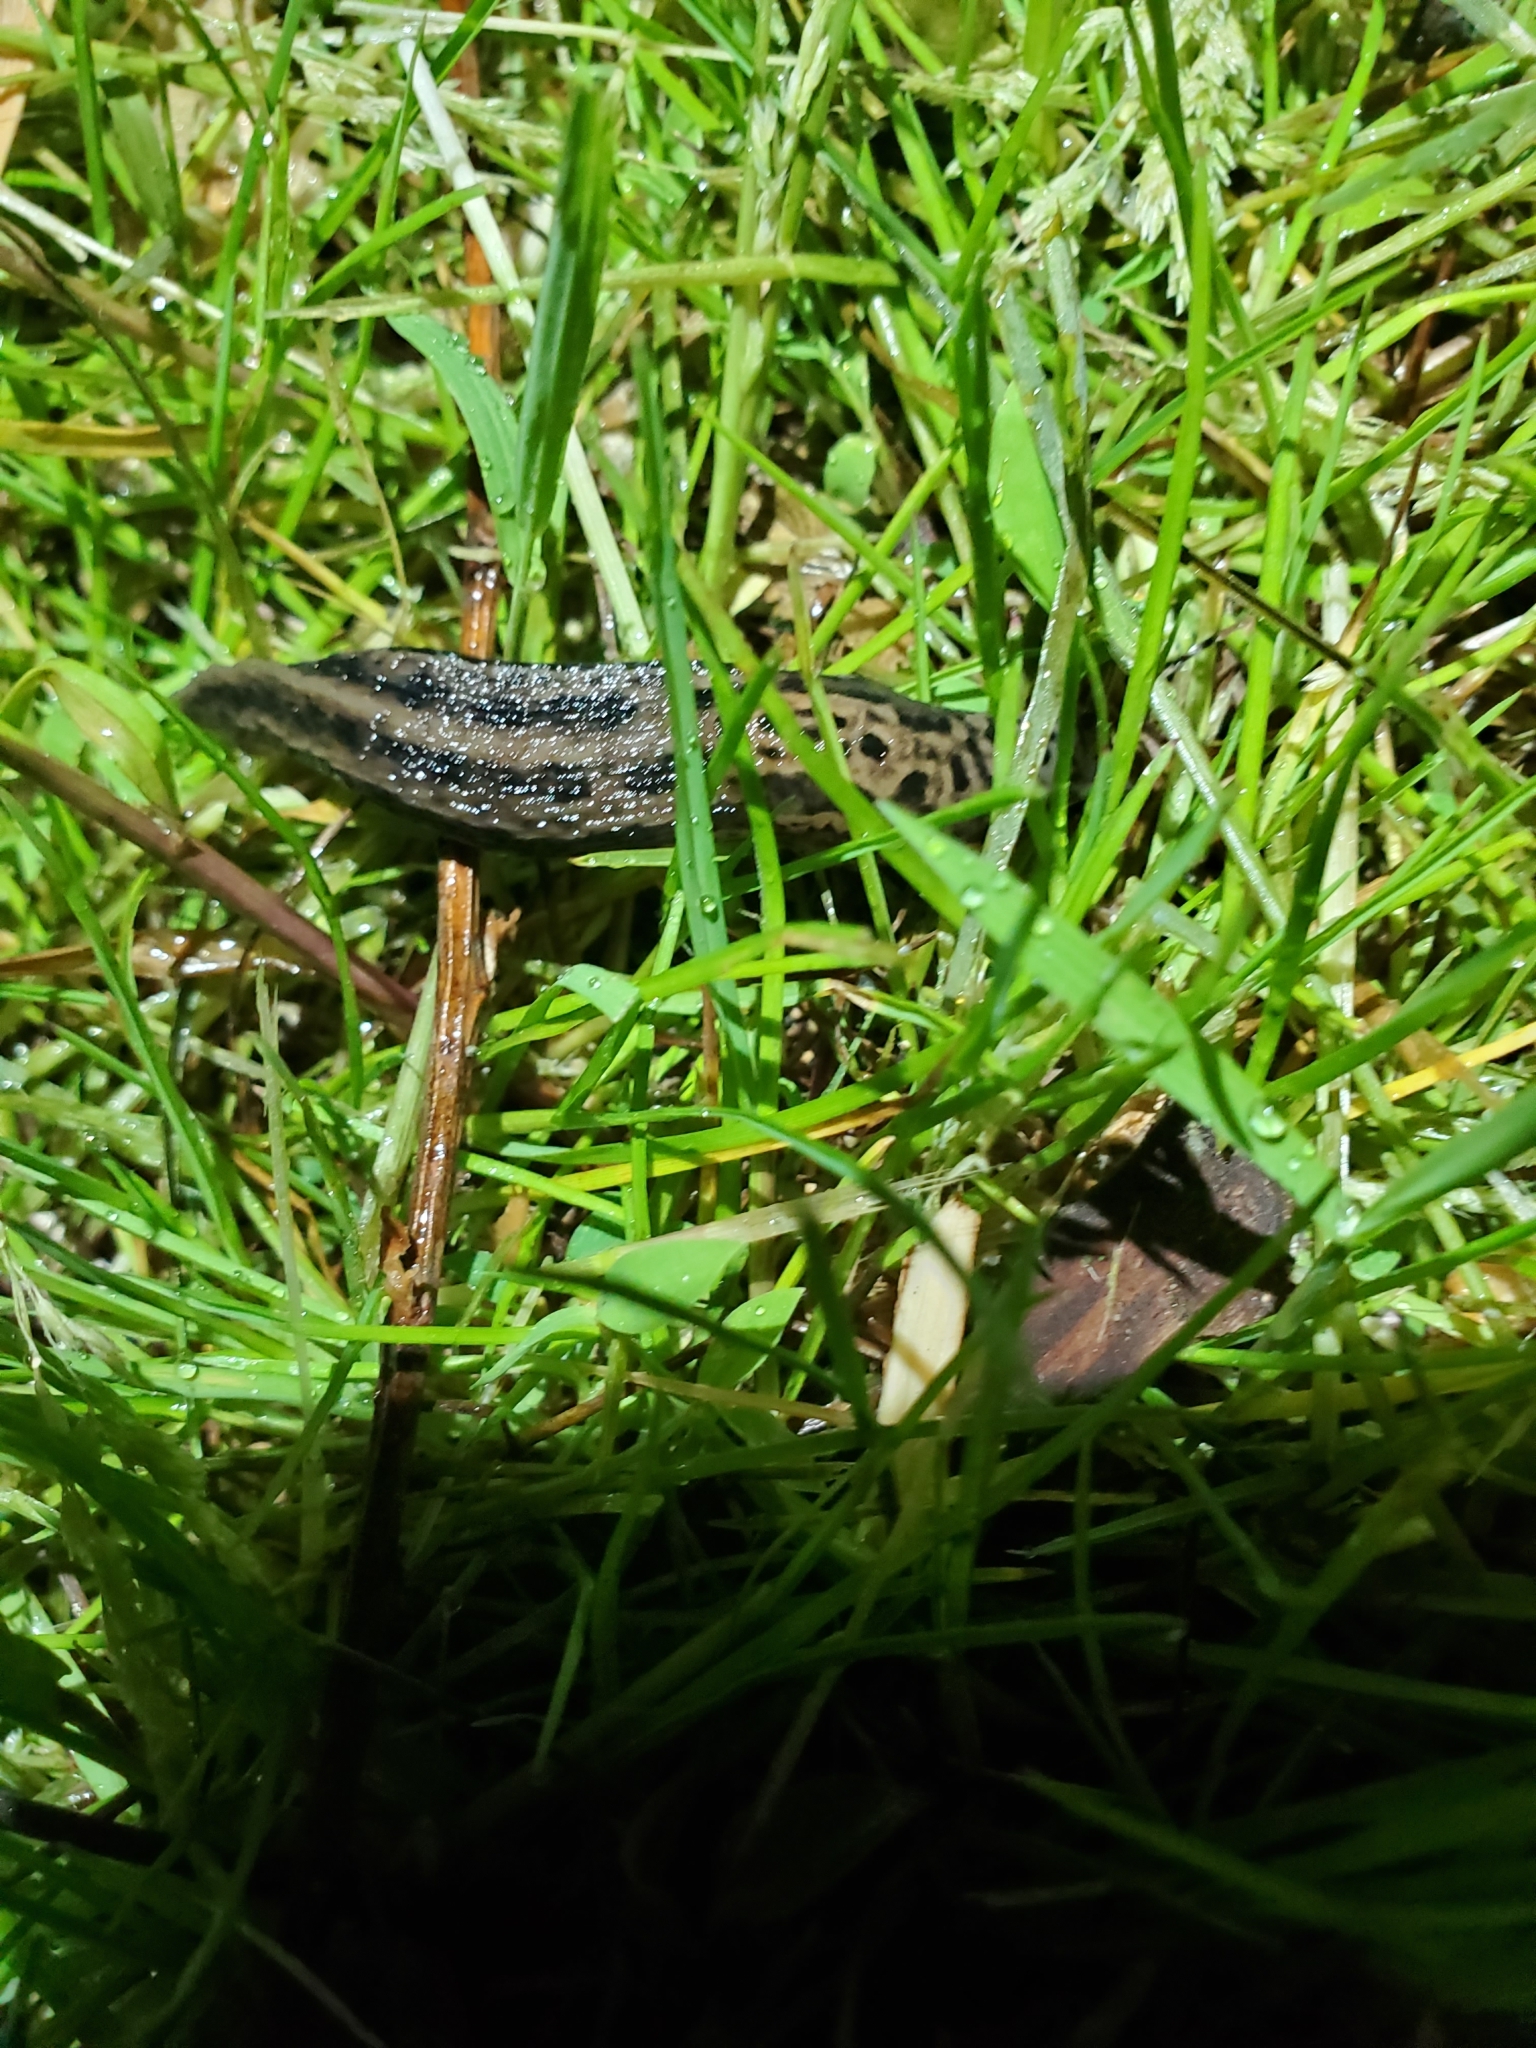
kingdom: Animalia
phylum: Mollusca
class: Gastropoda
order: Stylommatophora
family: Limacidae
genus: Limax
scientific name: Limax maximus
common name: Great grey slug
